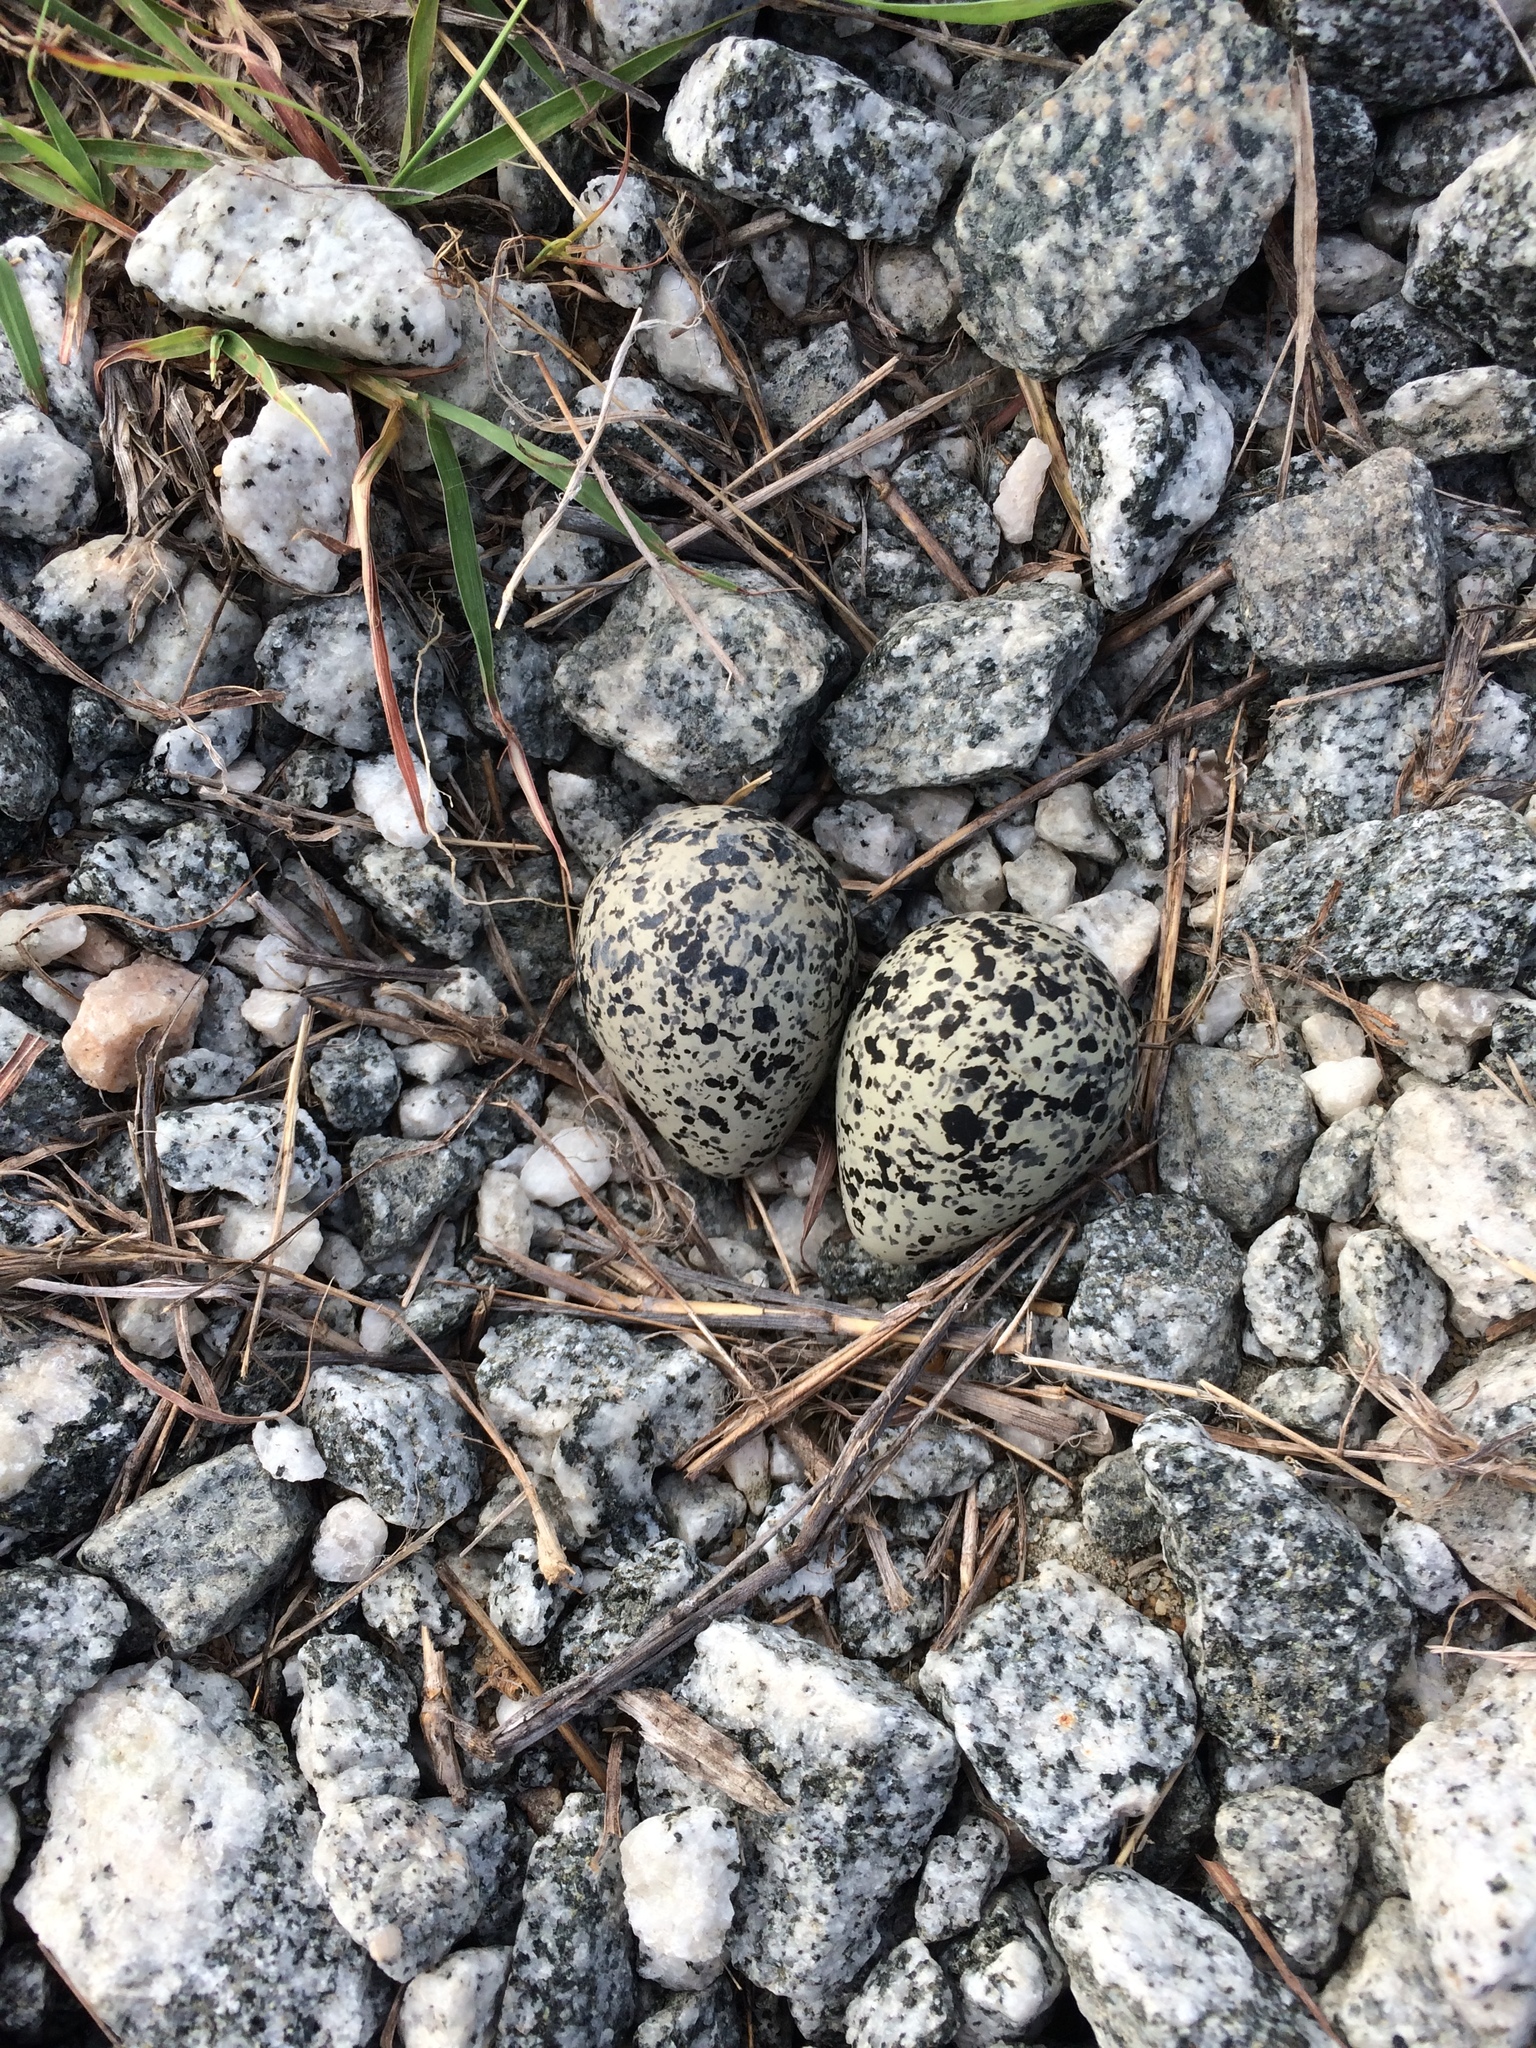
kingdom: Animalia
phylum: Chordata
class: Aves
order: Charadriiformes
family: Charadriidae
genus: Charadrius
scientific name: Charadrius vociferus
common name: Killdeer
